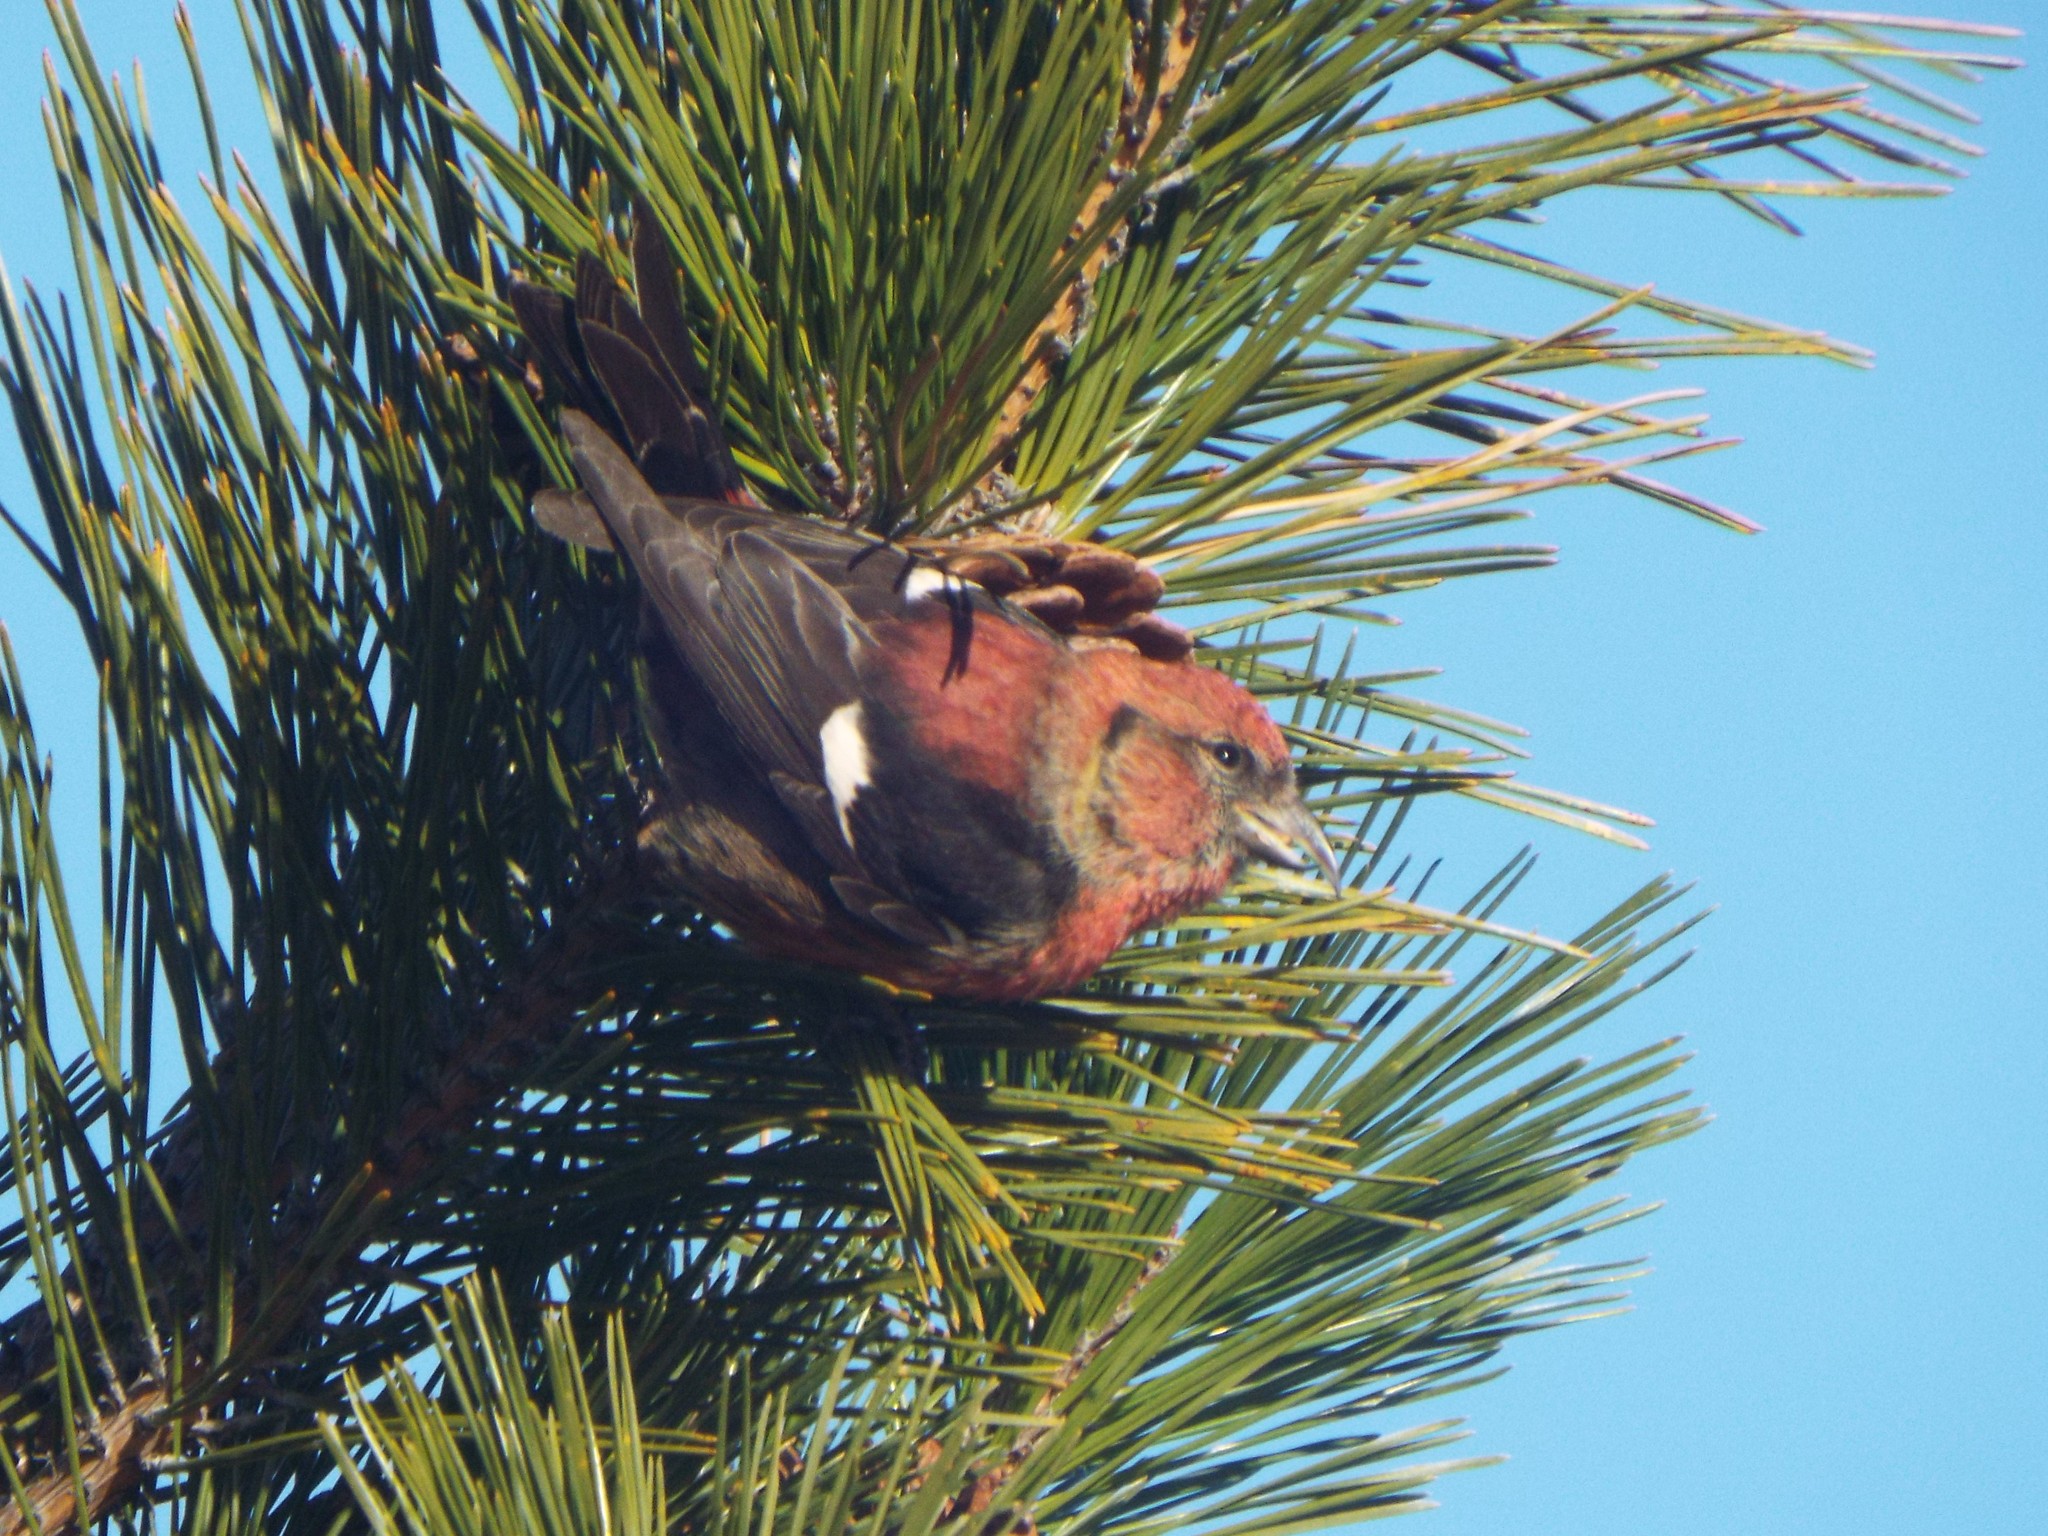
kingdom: Animalia
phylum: Chordata
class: Aves
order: Passeriformes
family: Fringillidae
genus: Loxia
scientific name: Loxia leucoptera
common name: Two-barred crossbill
